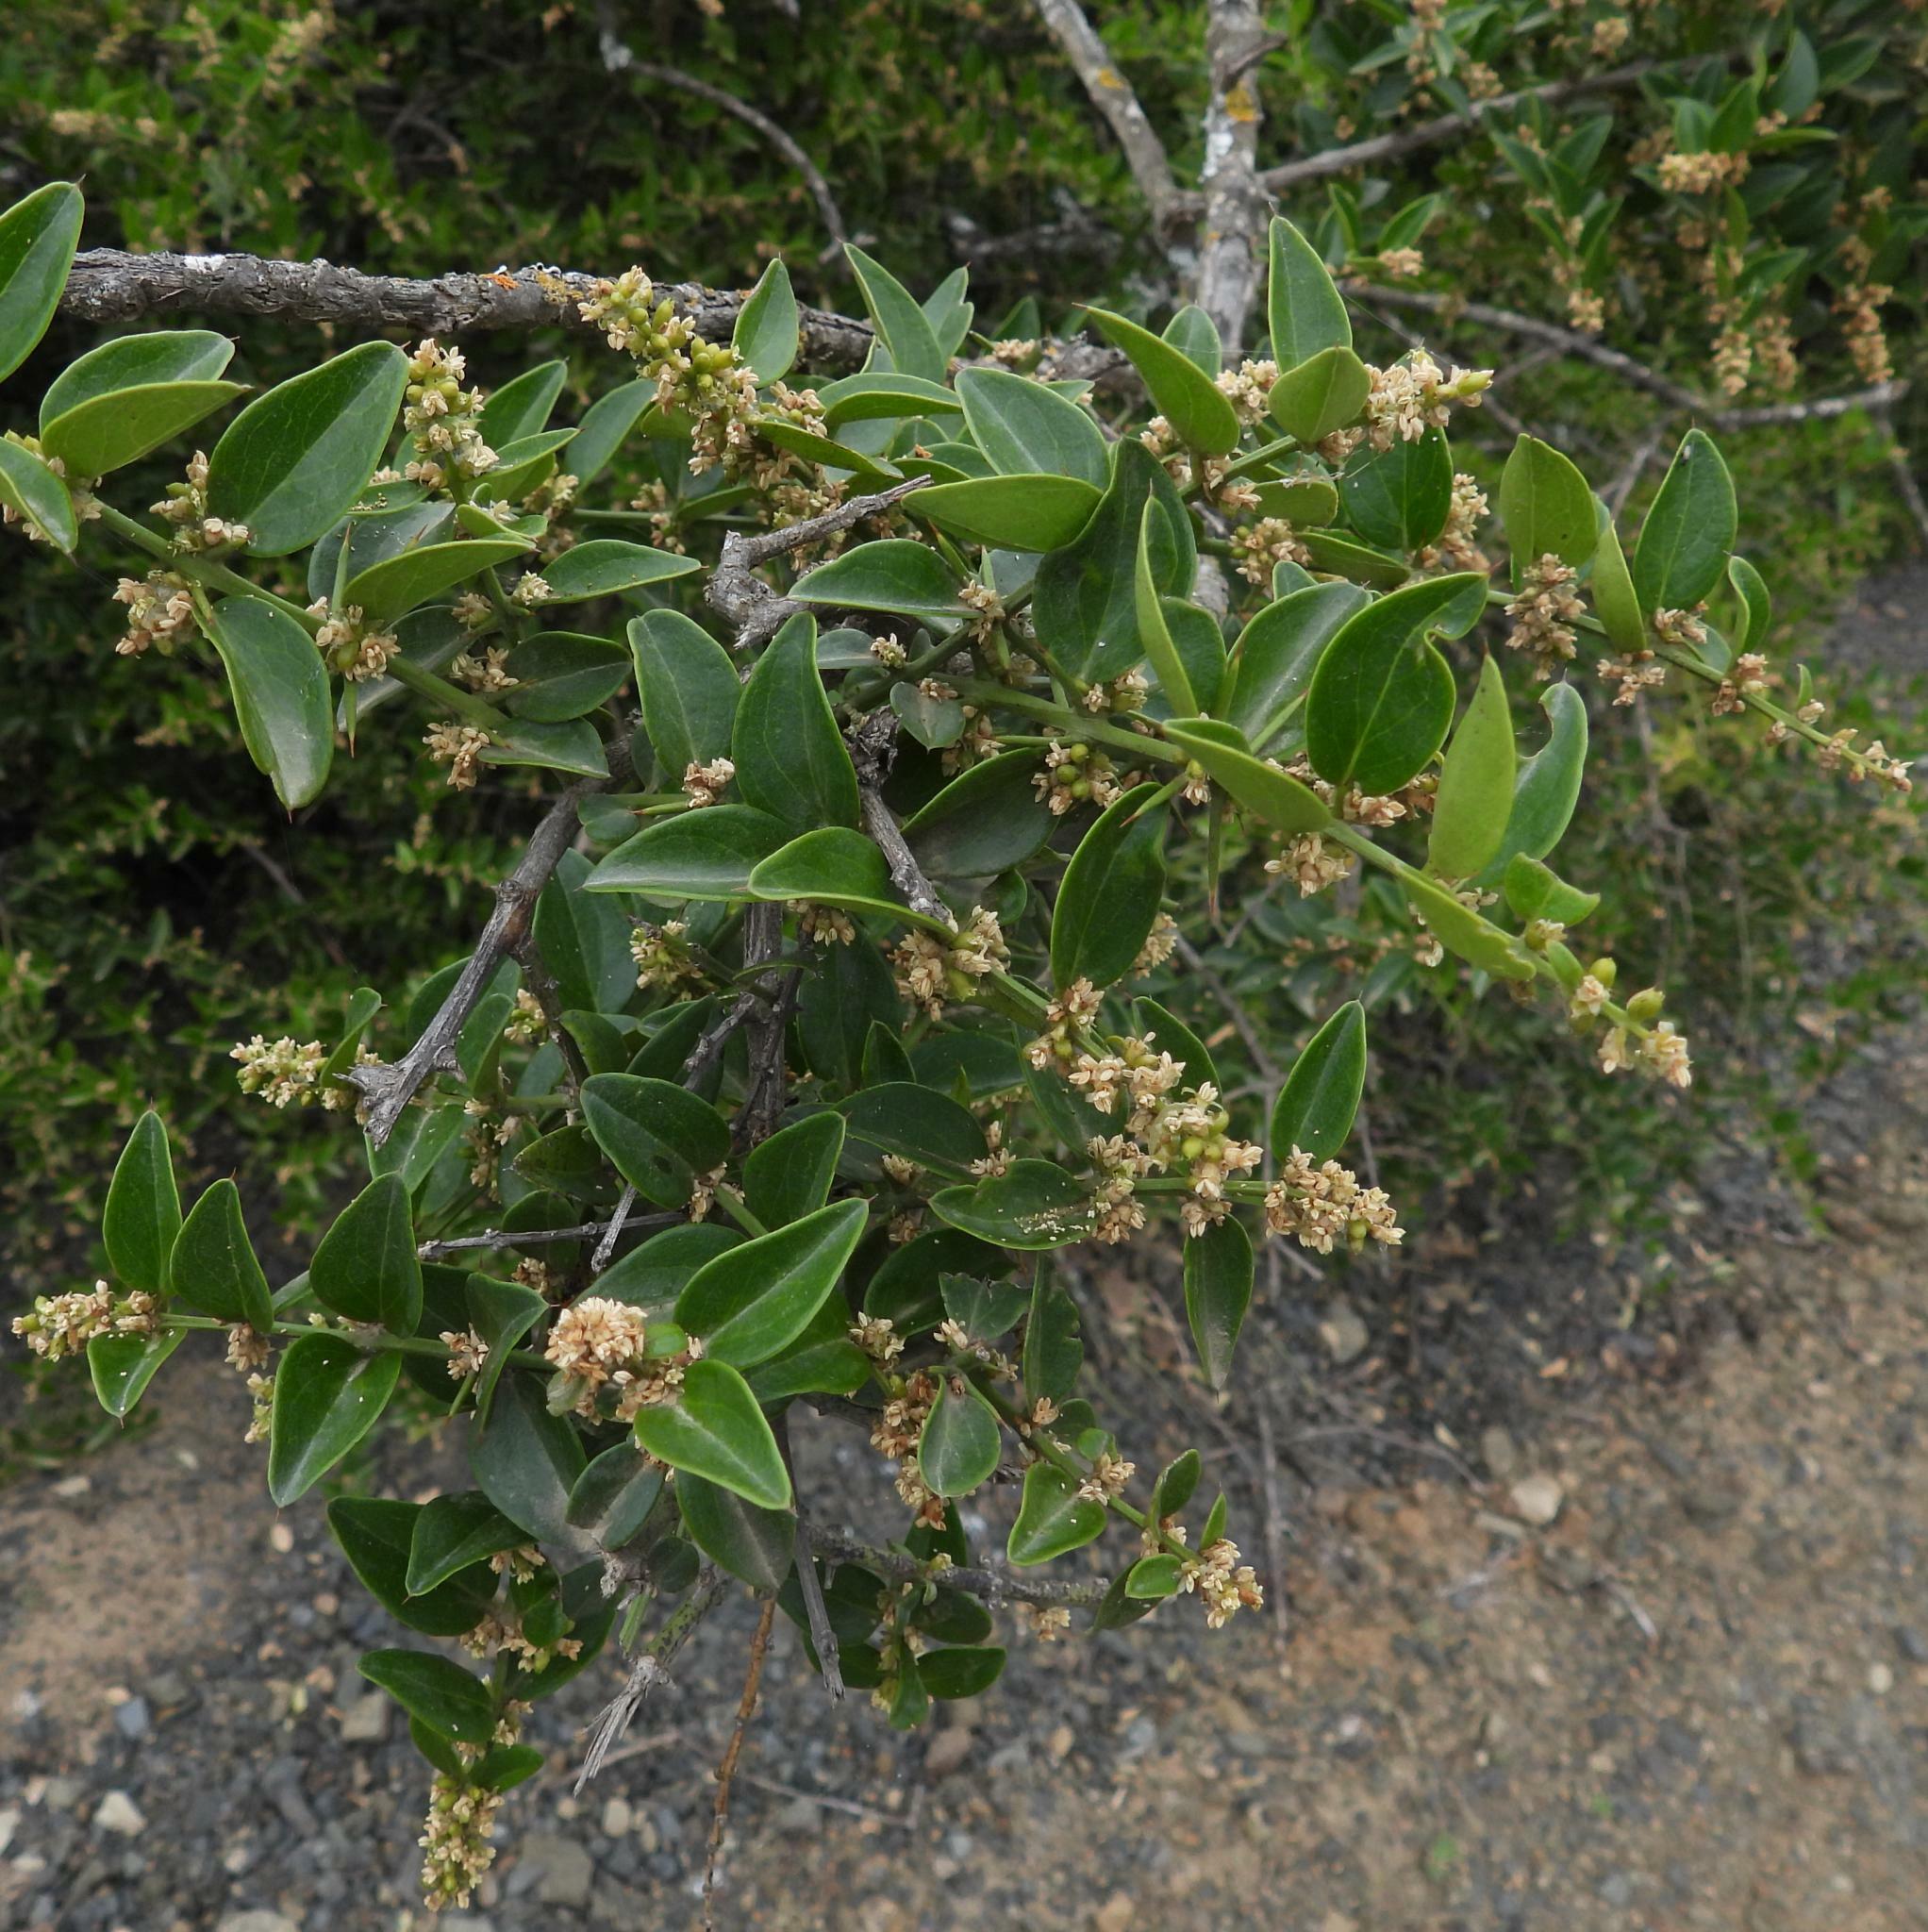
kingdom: Plantae
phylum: Tracheophyta
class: Magnoliopsida
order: Brassicales
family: Salvadoraceae
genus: Azima
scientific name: Azima tetracantha
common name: Needle bush
